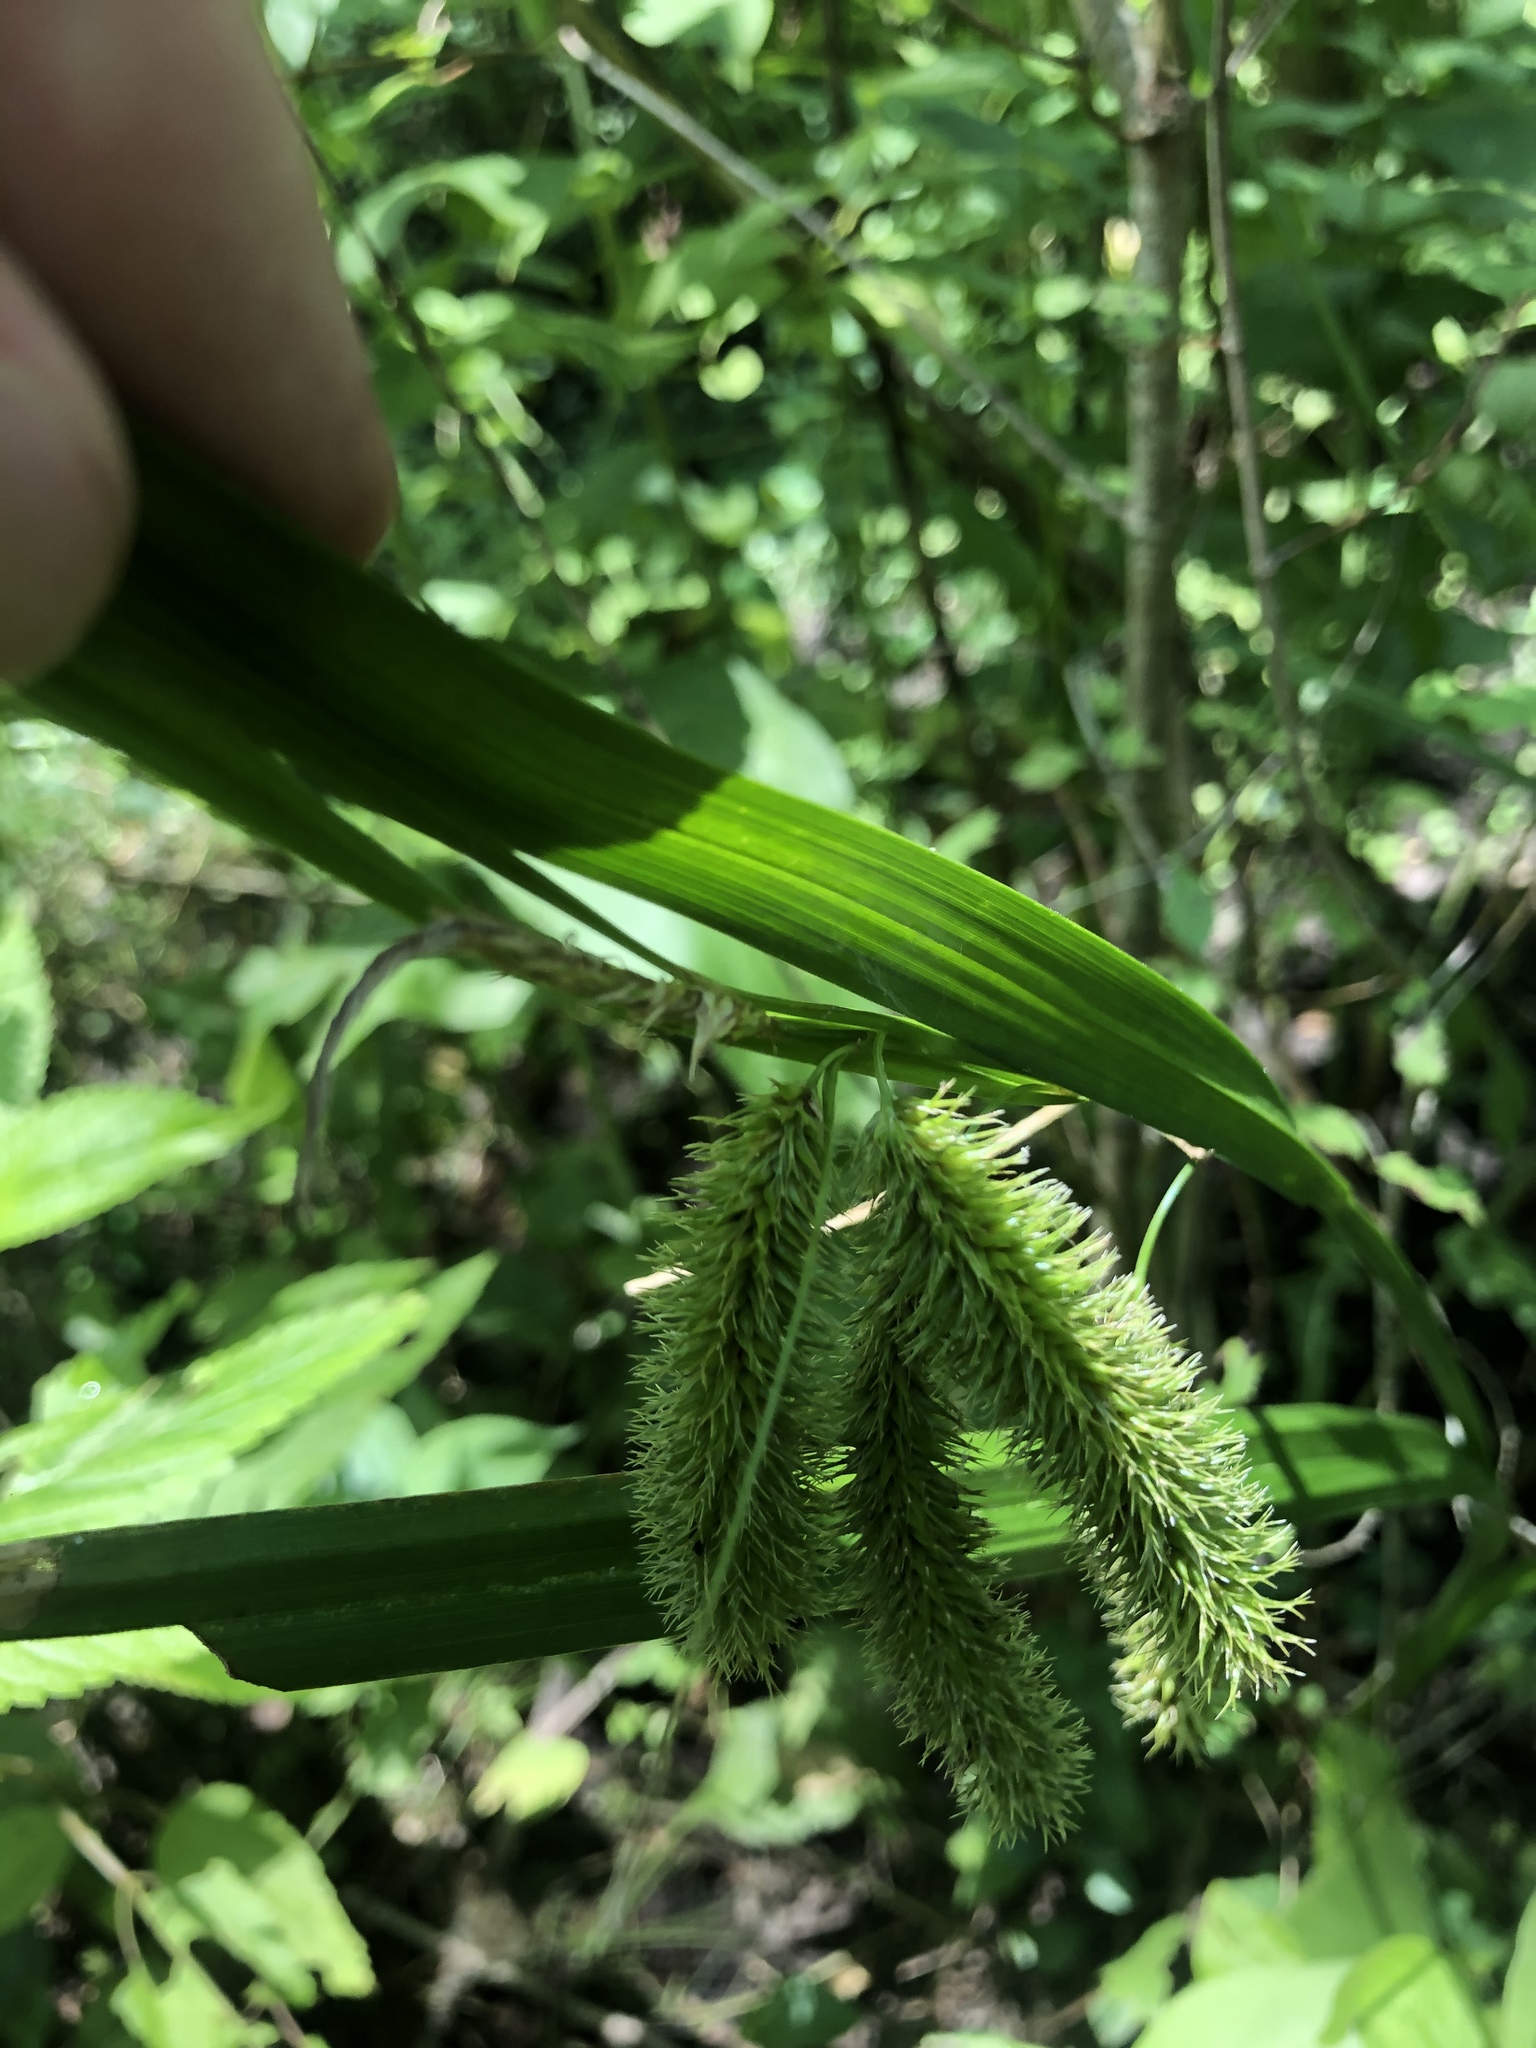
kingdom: Plantae
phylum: Tracheophyta
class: Liliopsida
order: Poales
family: Cyperaceae
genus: Carex
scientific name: Carex comosa
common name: Bristly sedge
